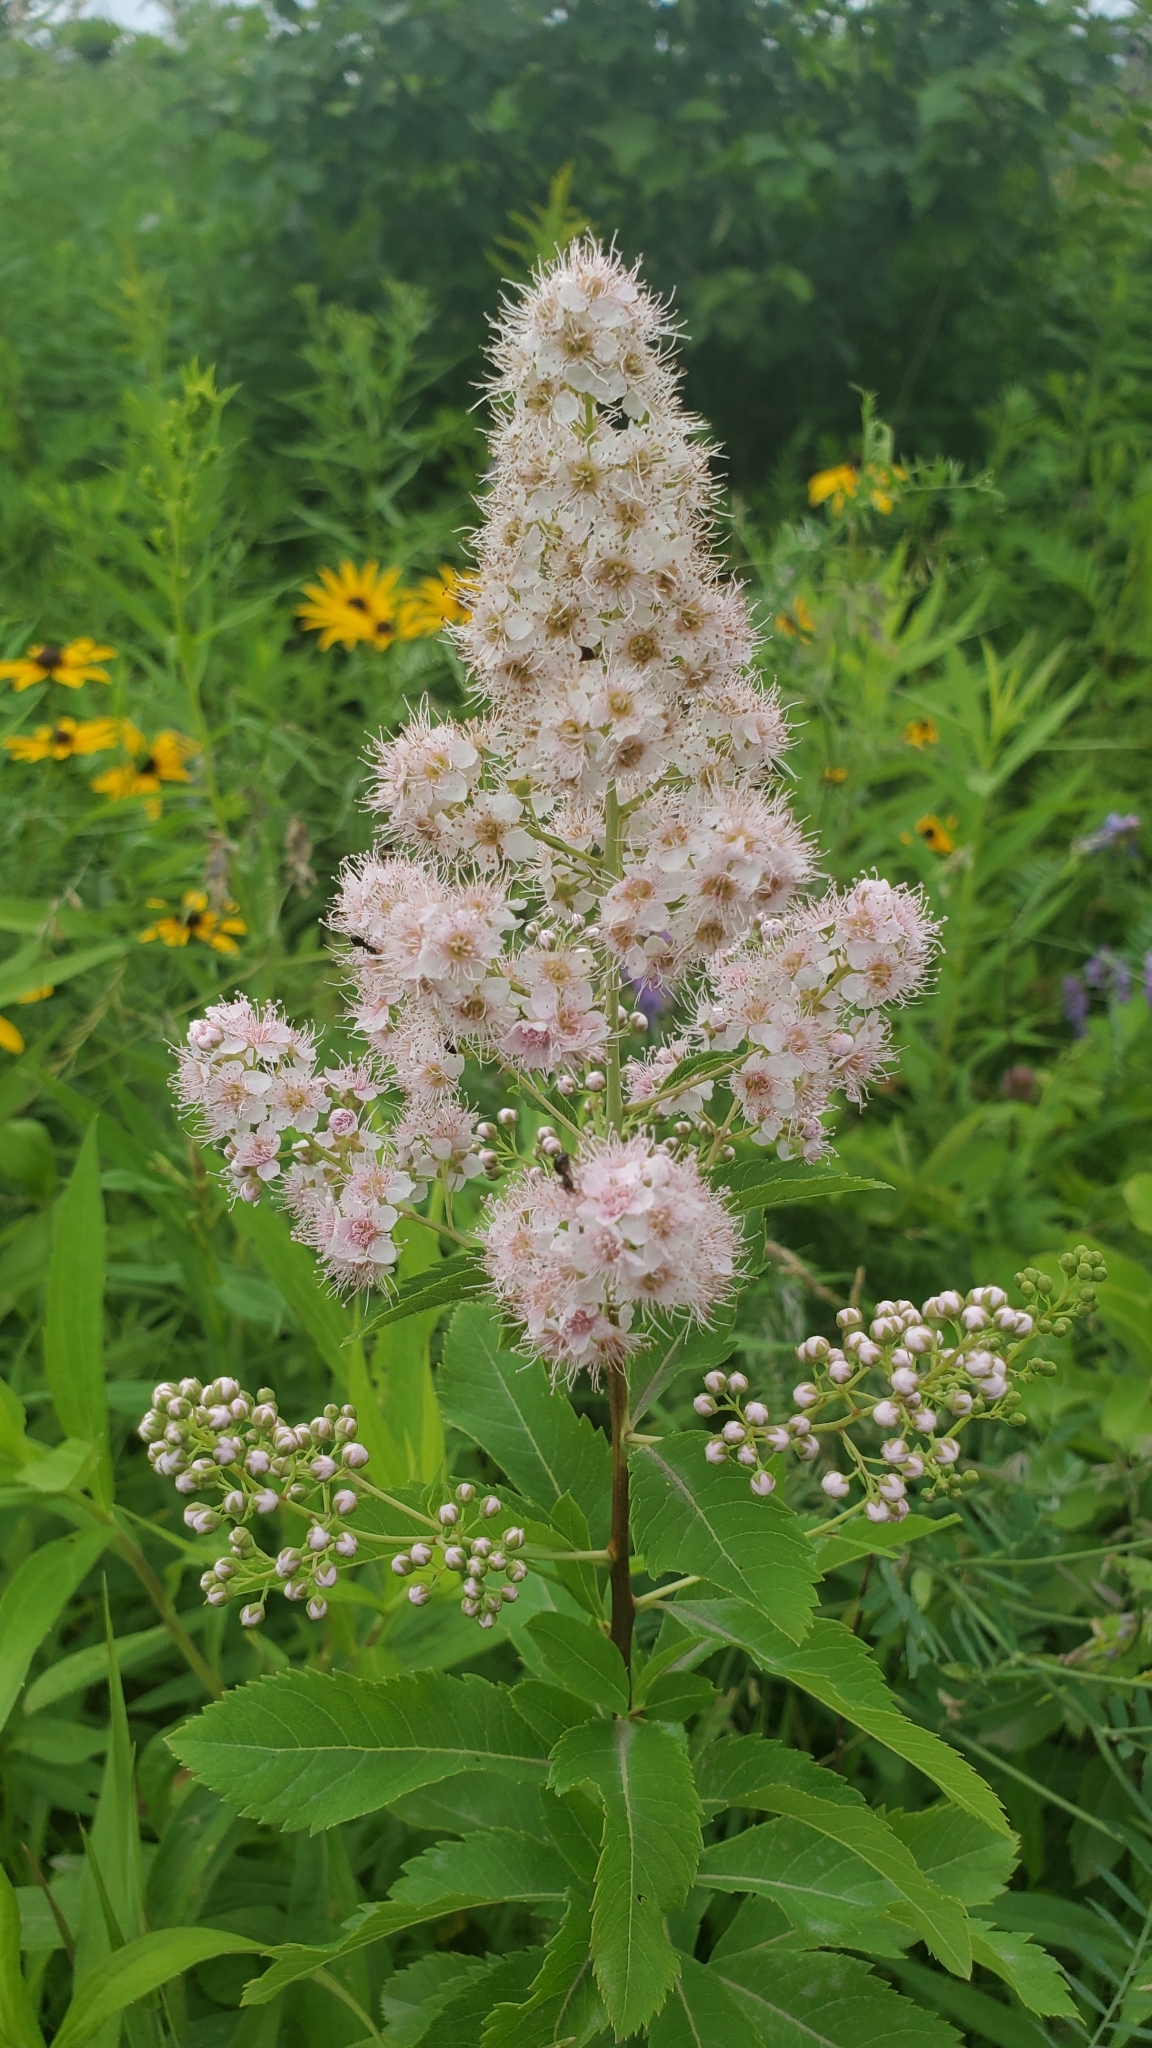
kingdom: Plantae
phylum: Tracheophyta
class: Magnoliopsida
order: Rosales
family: Rosaceae
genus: Spiraea
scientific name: Spiraea alba
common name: Pale bridewort
